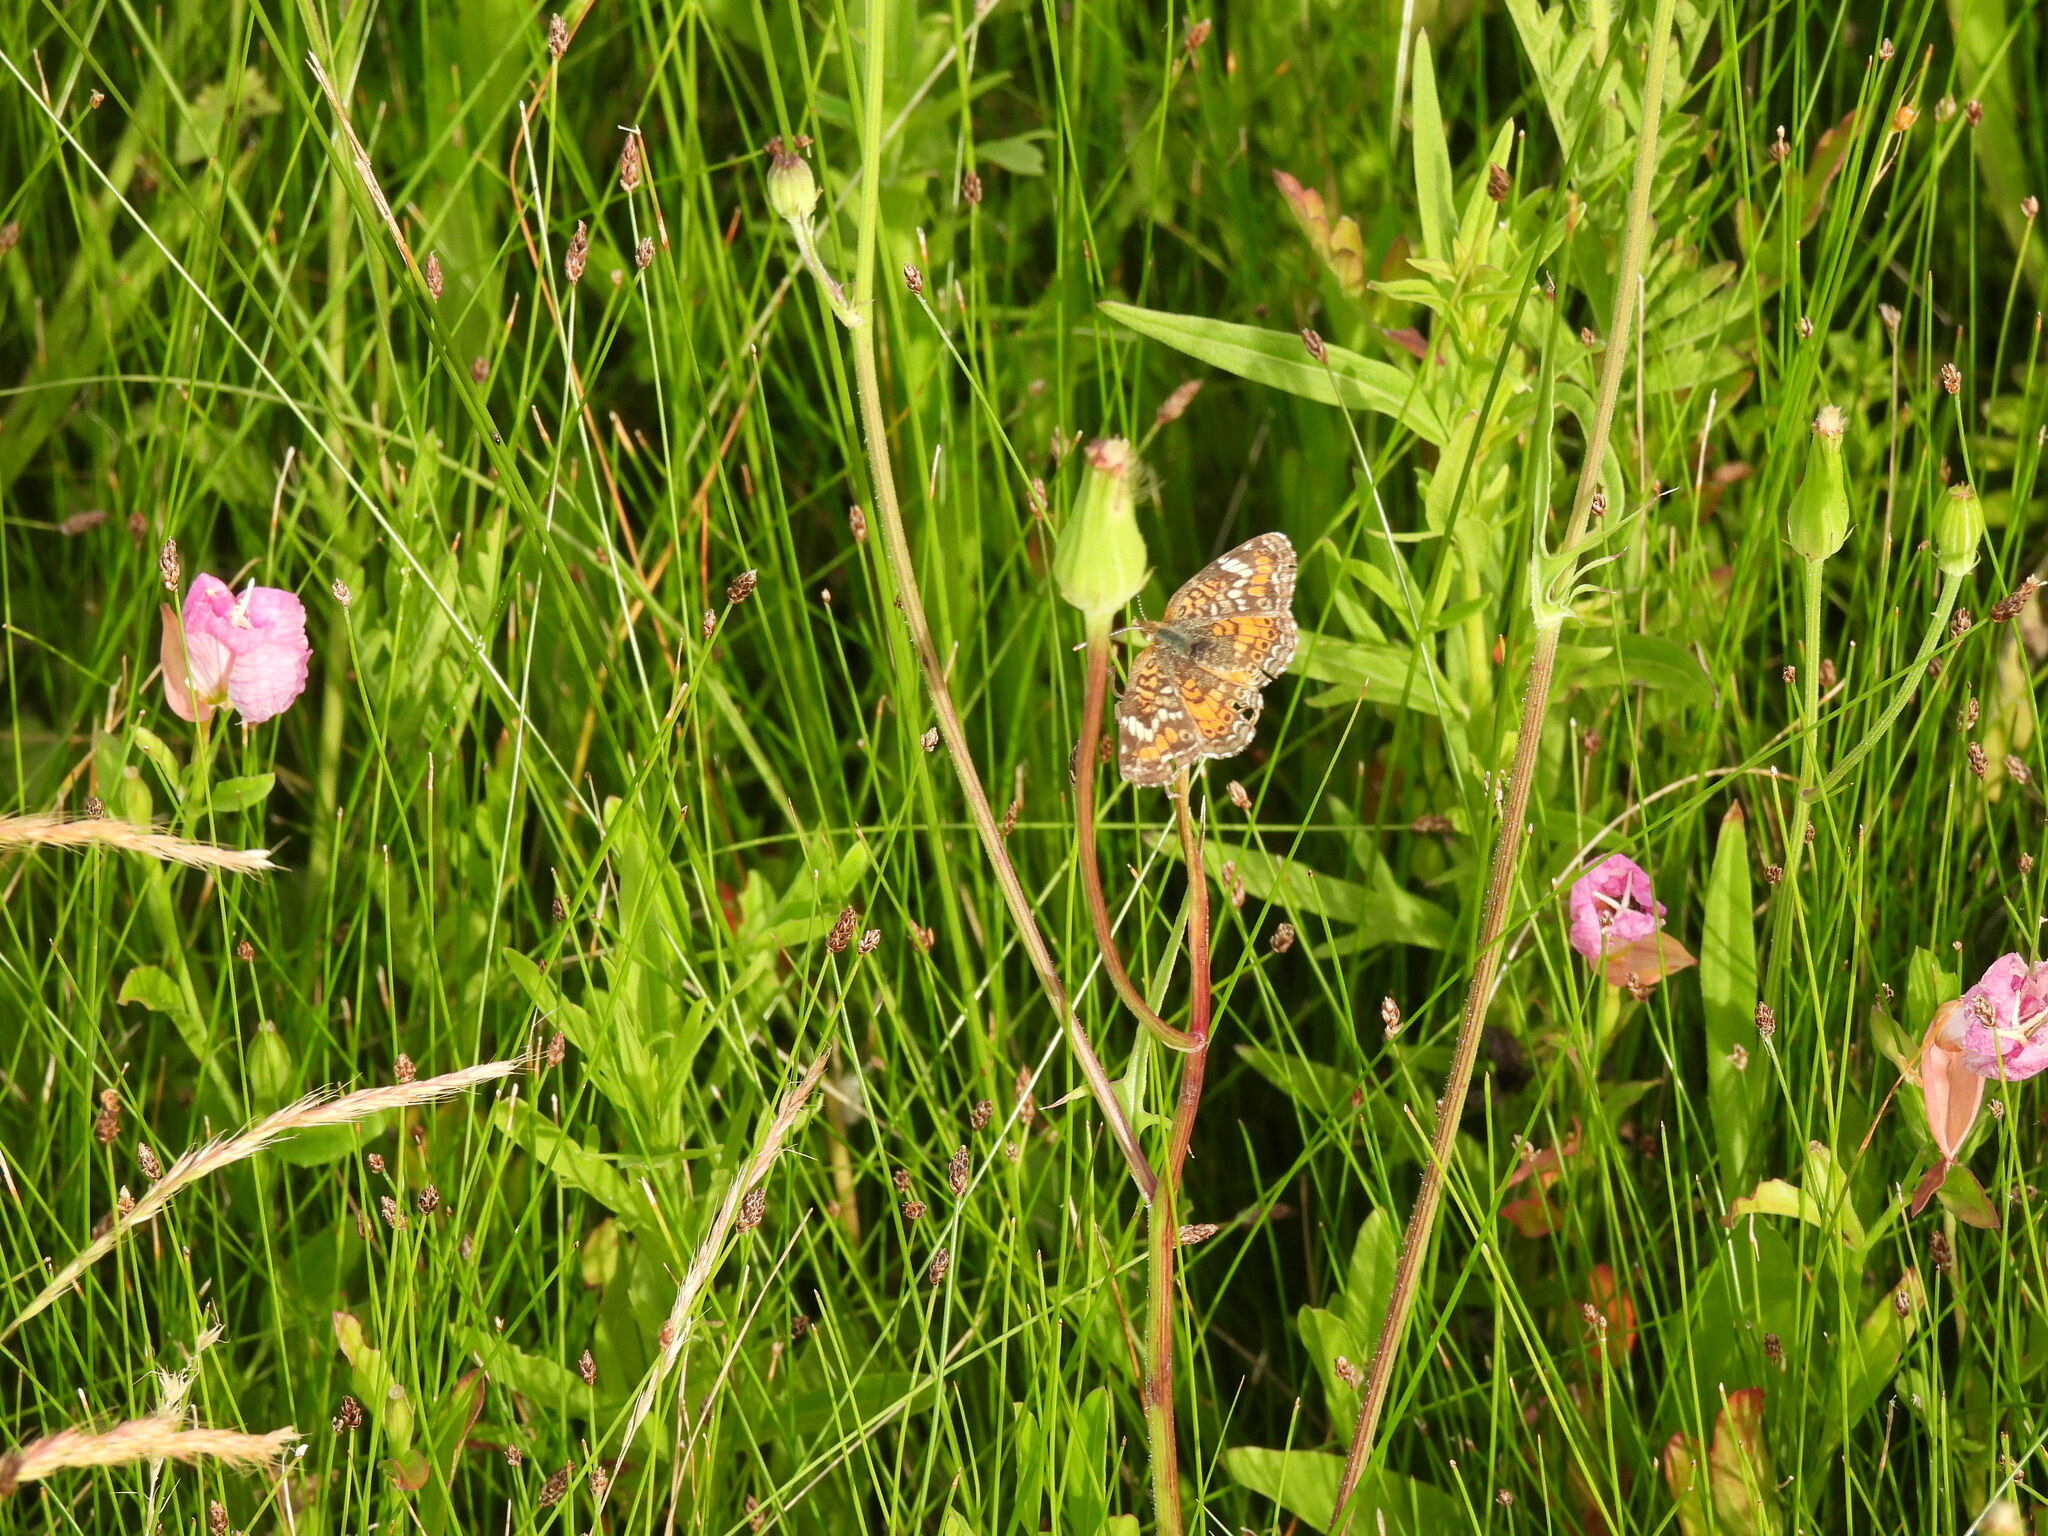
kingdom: Animalia
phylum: Arthropoda
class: Insecta
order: Lepidoptera
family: Nymphalidae
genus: Phyciodes
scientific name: Phyciodes phaon
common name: Phaon crescent
